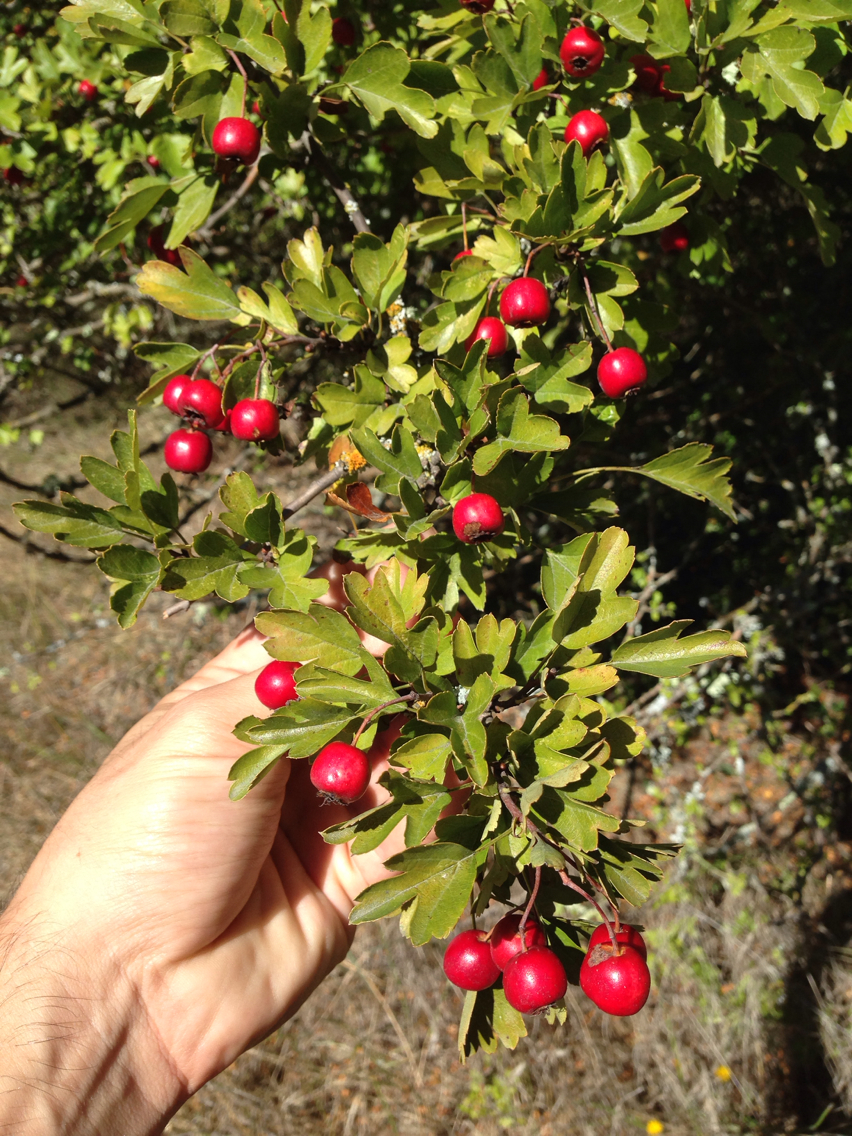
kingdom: Plantae
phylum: Tracheophyta
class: Magnoliopsida
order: Rosales
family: Rosaceae
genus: Crataegus
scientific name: Crataegus monogyna
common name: Hawthorn
